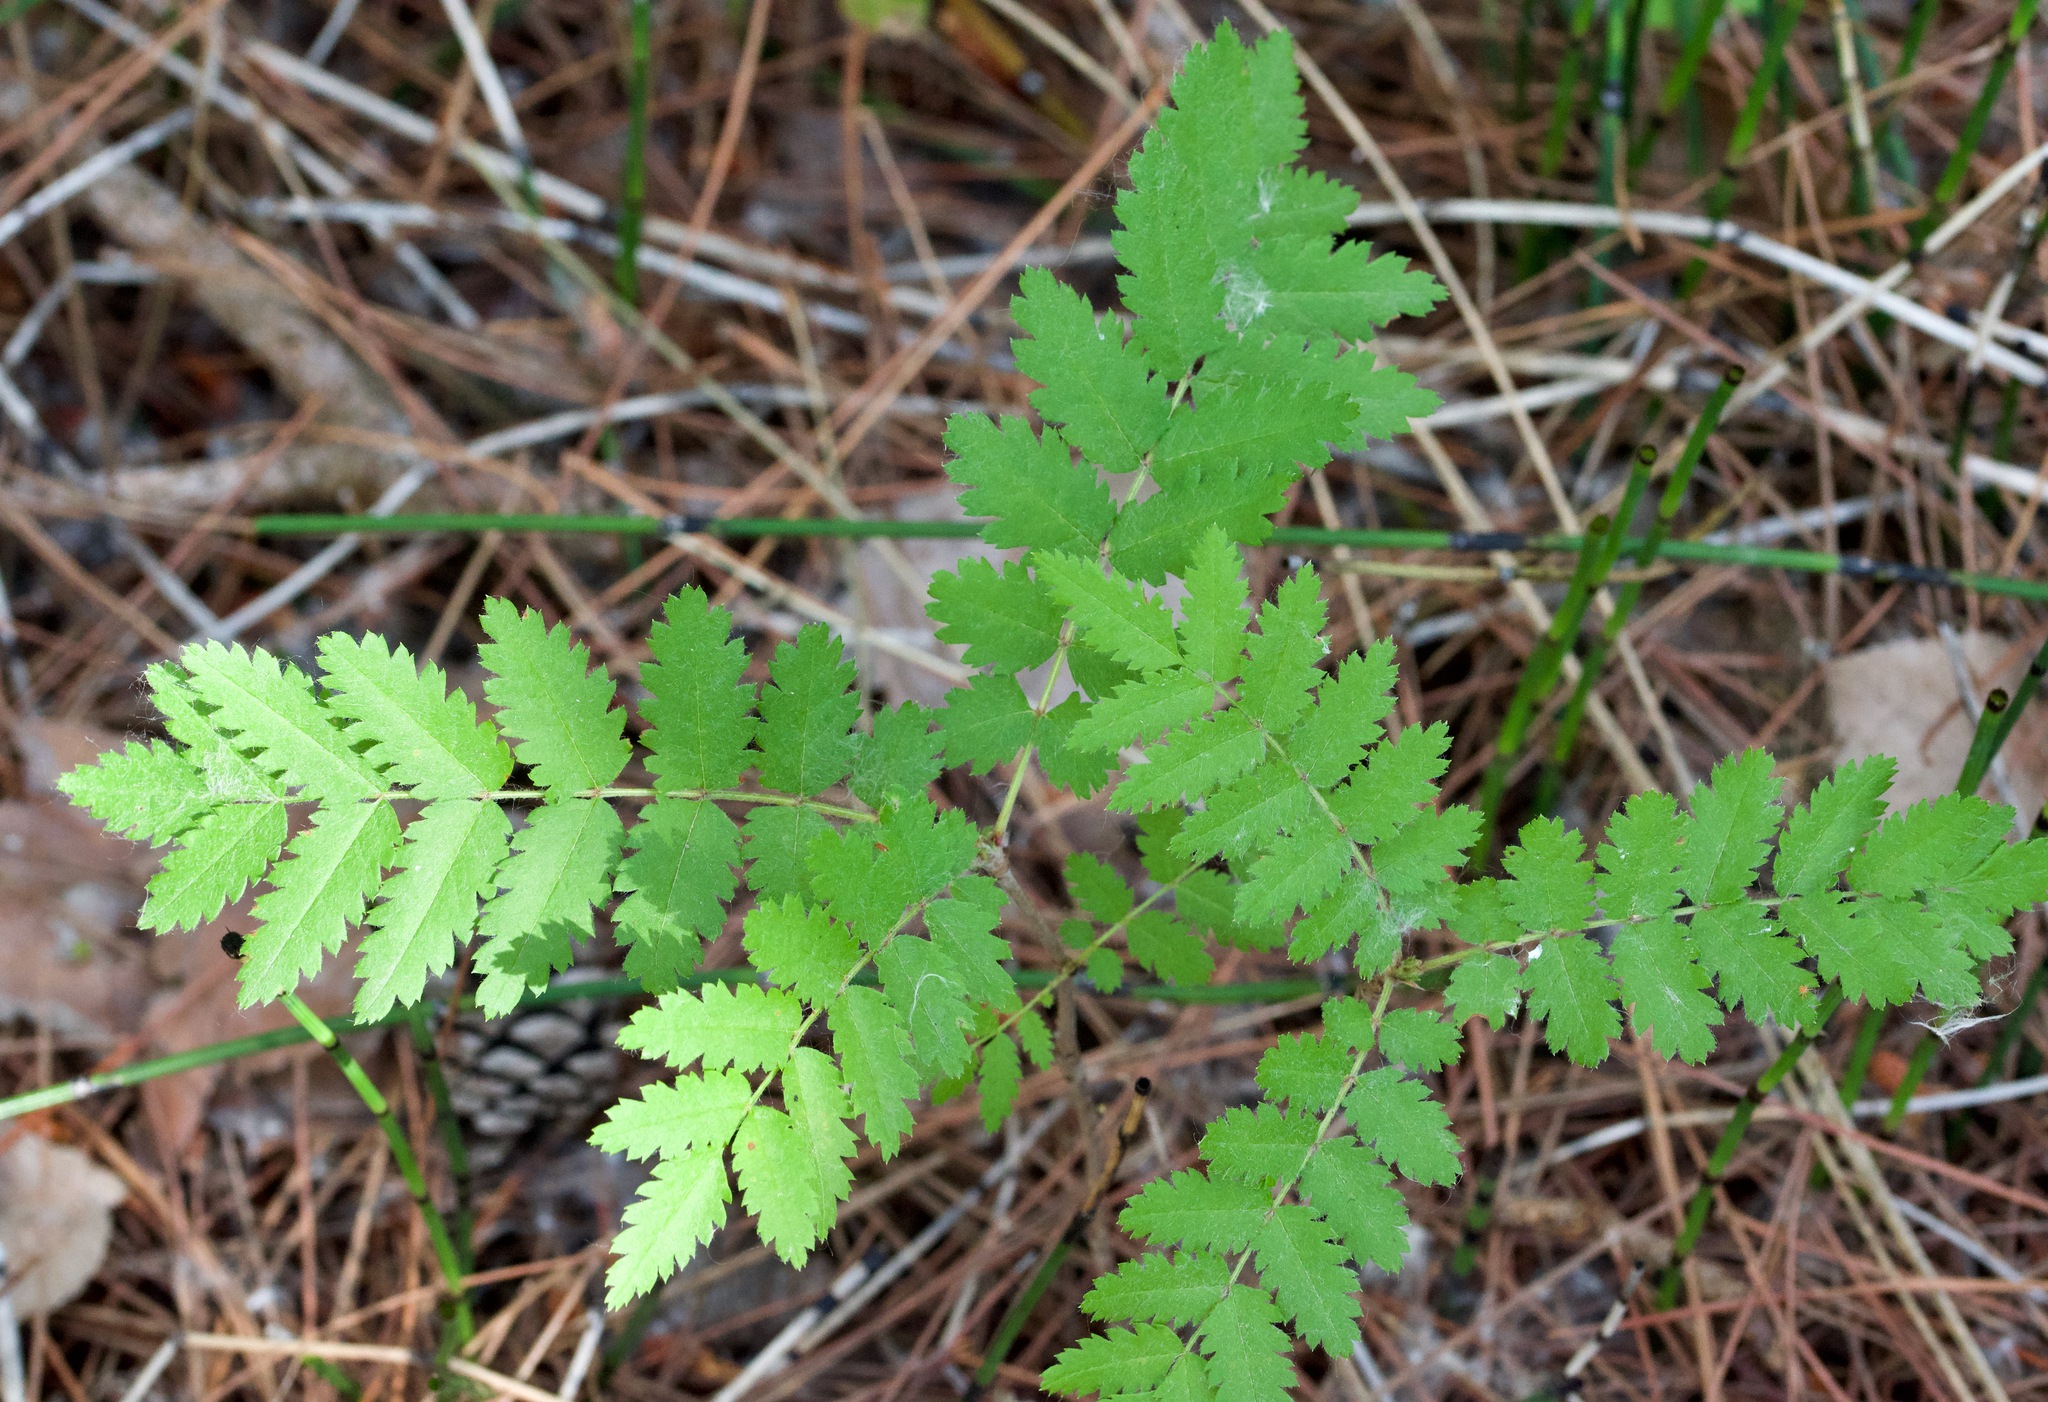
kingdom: Plantae
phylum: Tracheophyta
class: Magnoliopsida
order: Rosales
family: Rosaceae
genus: Sorbus
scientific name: Sorbus aucuparia
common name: Rowan
